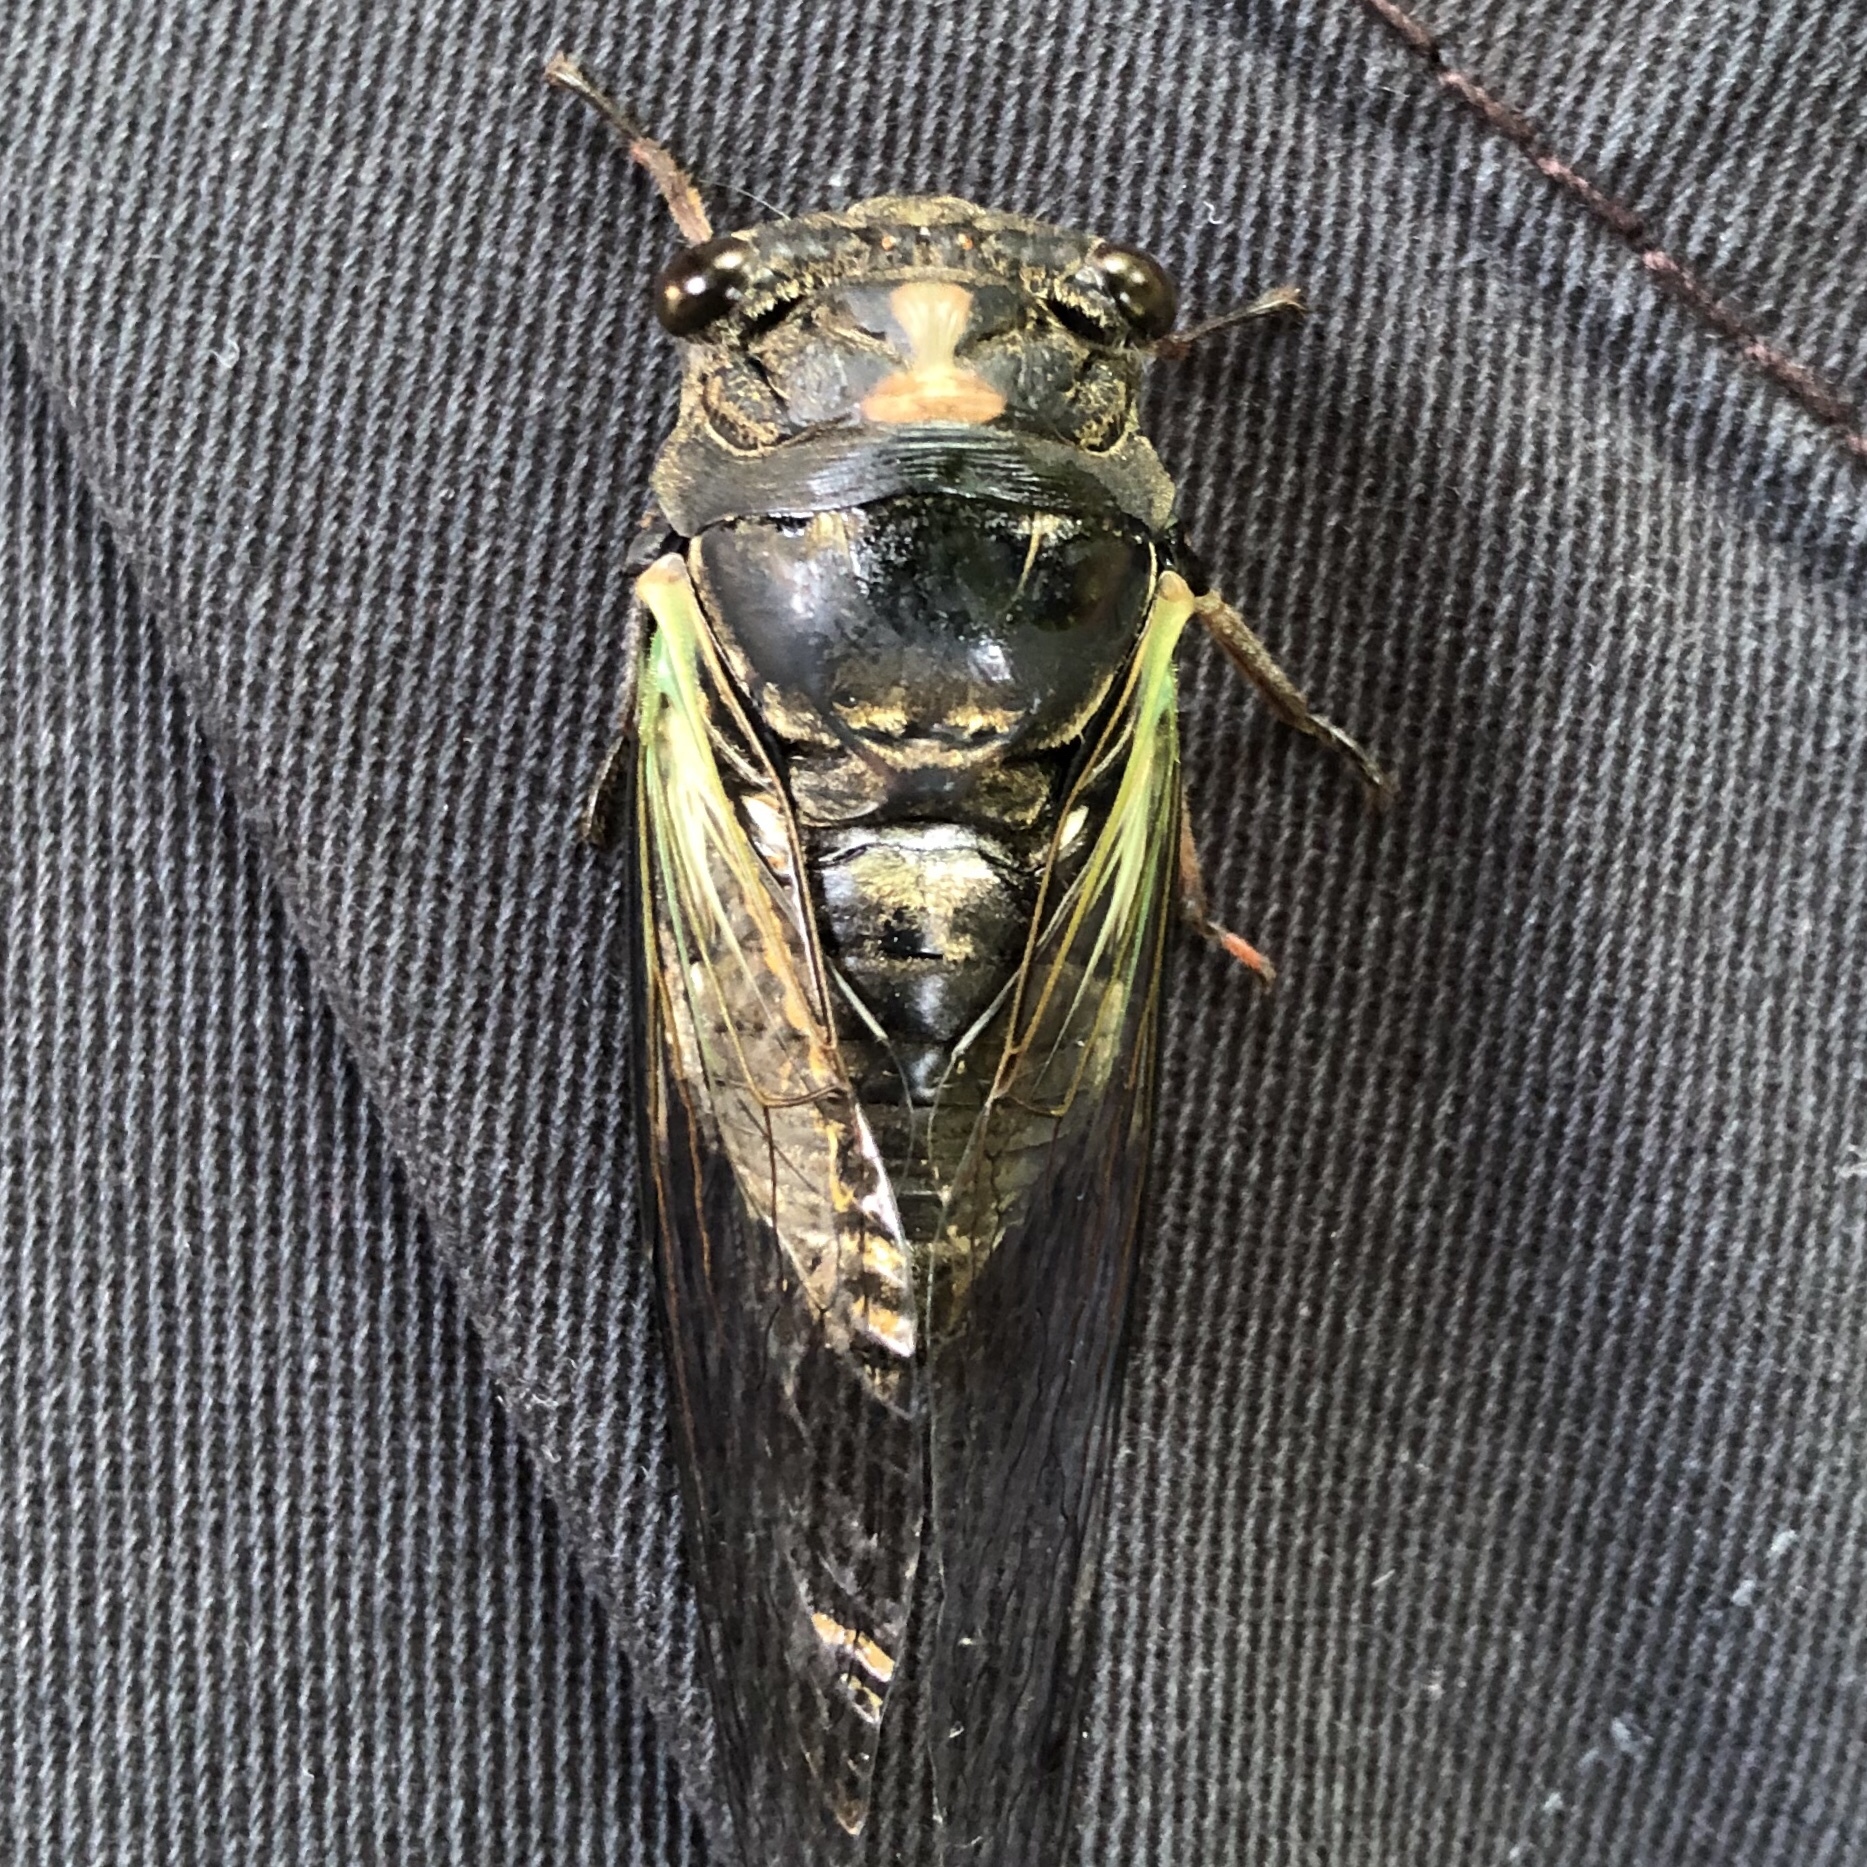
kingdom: Animalia
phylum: Arthropoda
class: Insecta
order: Hemiptera
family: Cicadidae
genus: Neotibicen
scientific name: Neotibicen lyricen
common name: Lyric cicada
